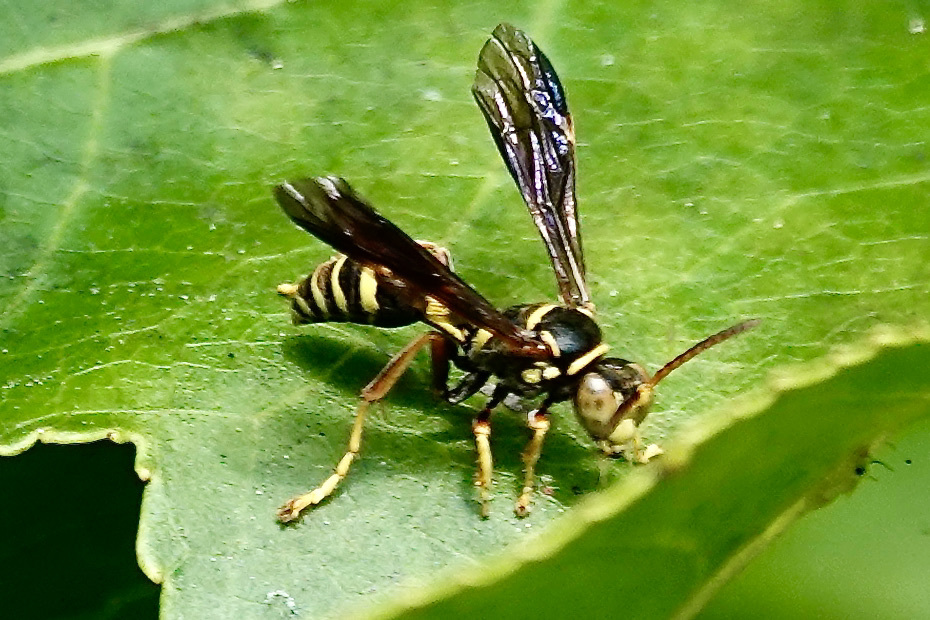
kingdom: Animalia
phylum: Arthropoda
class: Insecta
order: Hymenoptera
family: Crabronidae
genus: Saygorytes
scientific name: Saygorytes phaleratus
